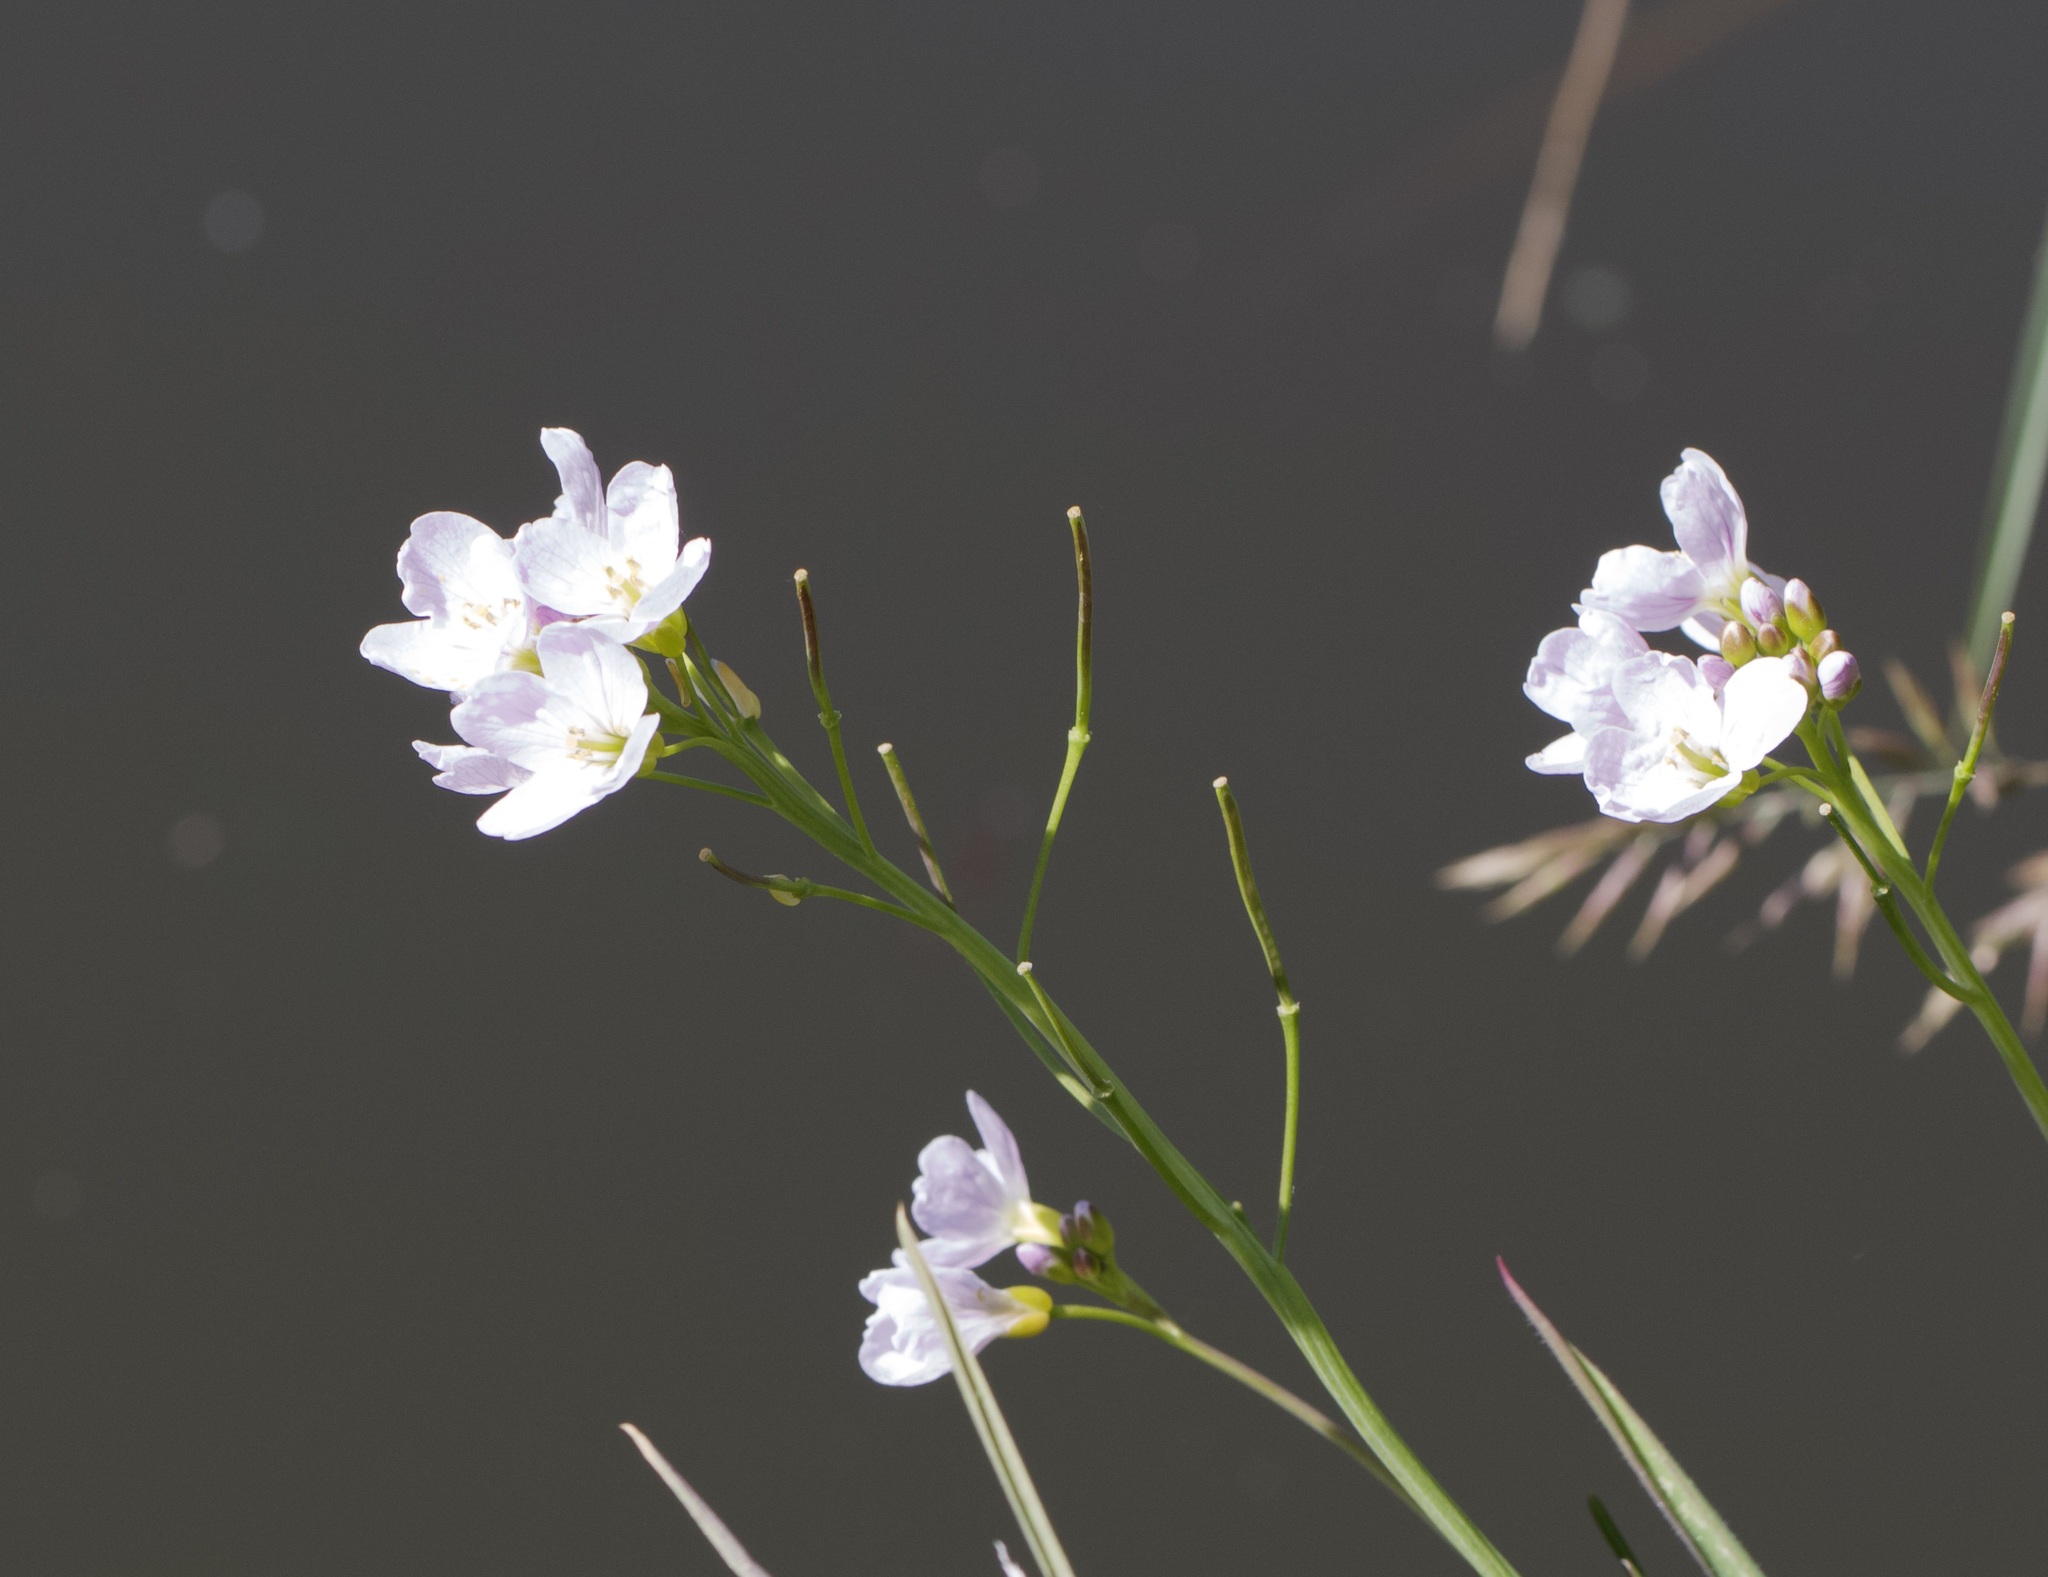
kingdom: Plantae
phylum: Tracheophyta
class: Magnoliopsida
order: Brassicales
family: Brassicaceae
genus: Cardamine
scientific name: Cardamine pratensis
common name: Cuckoo flower
